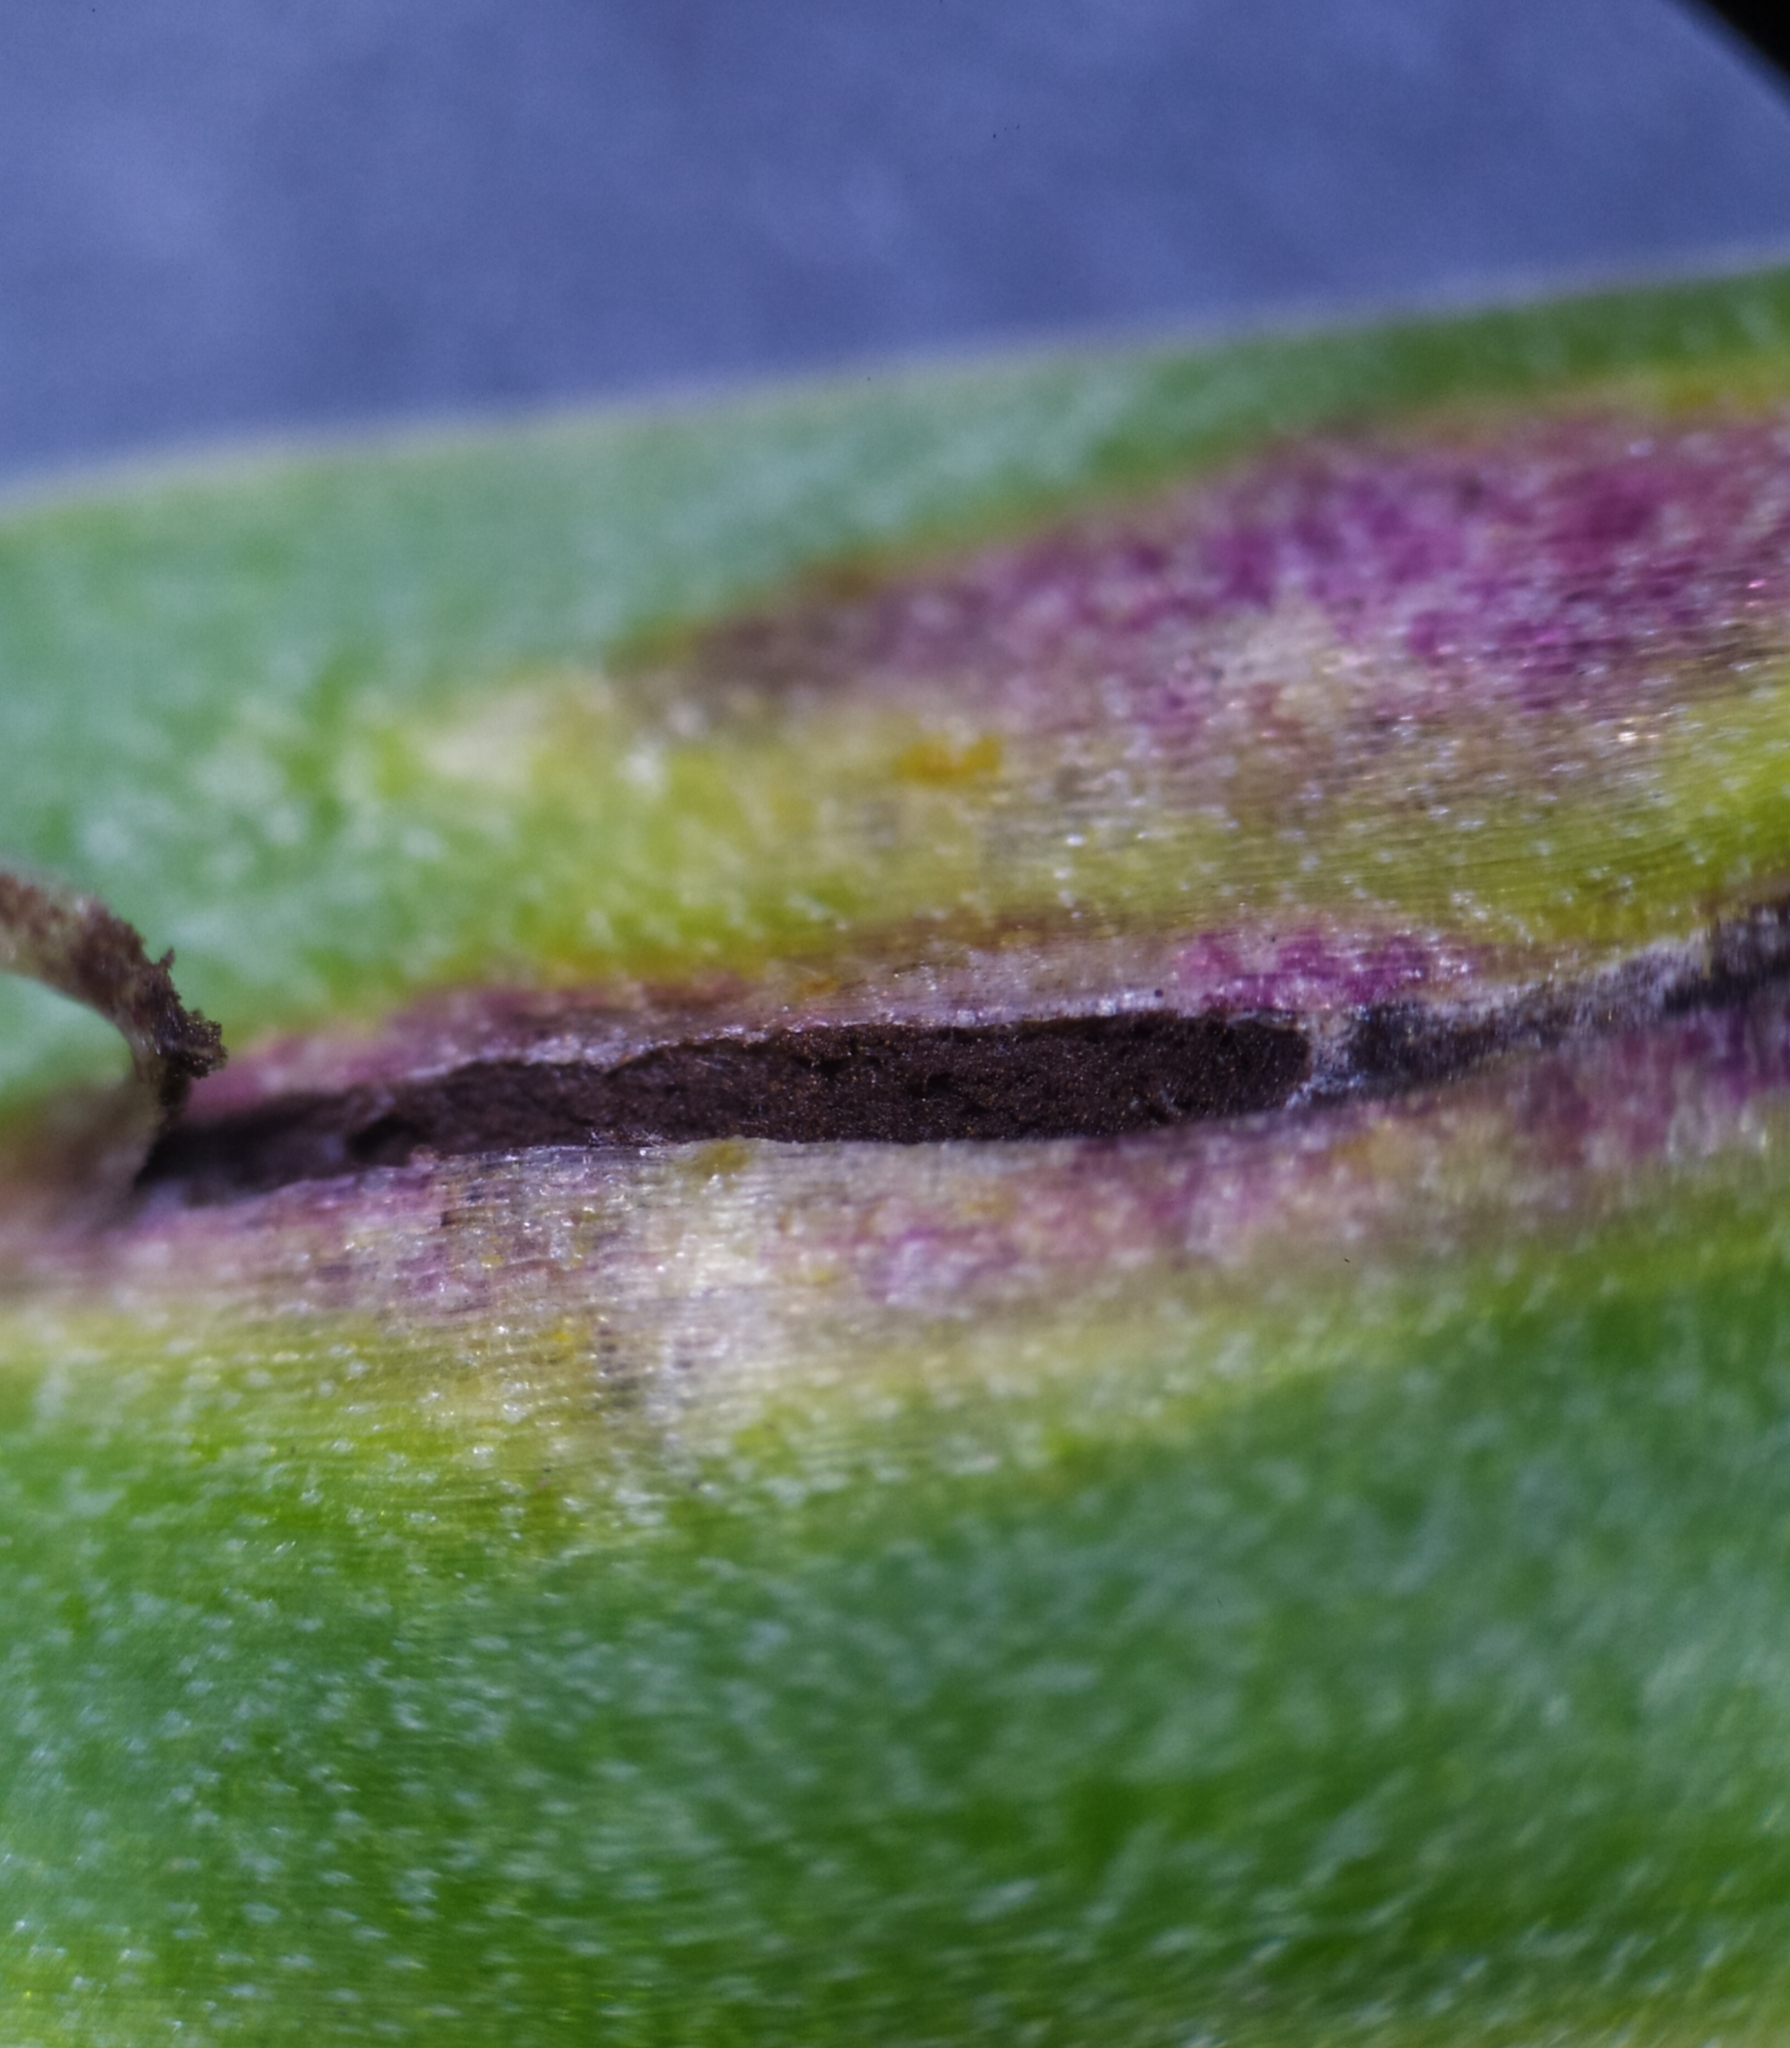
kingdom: Fungi
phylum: Basidiomycota
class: Ustilaginomycetes
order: Urocystidales
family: Urocystidaceae
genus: Vankya
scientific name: Vankya heufleri
